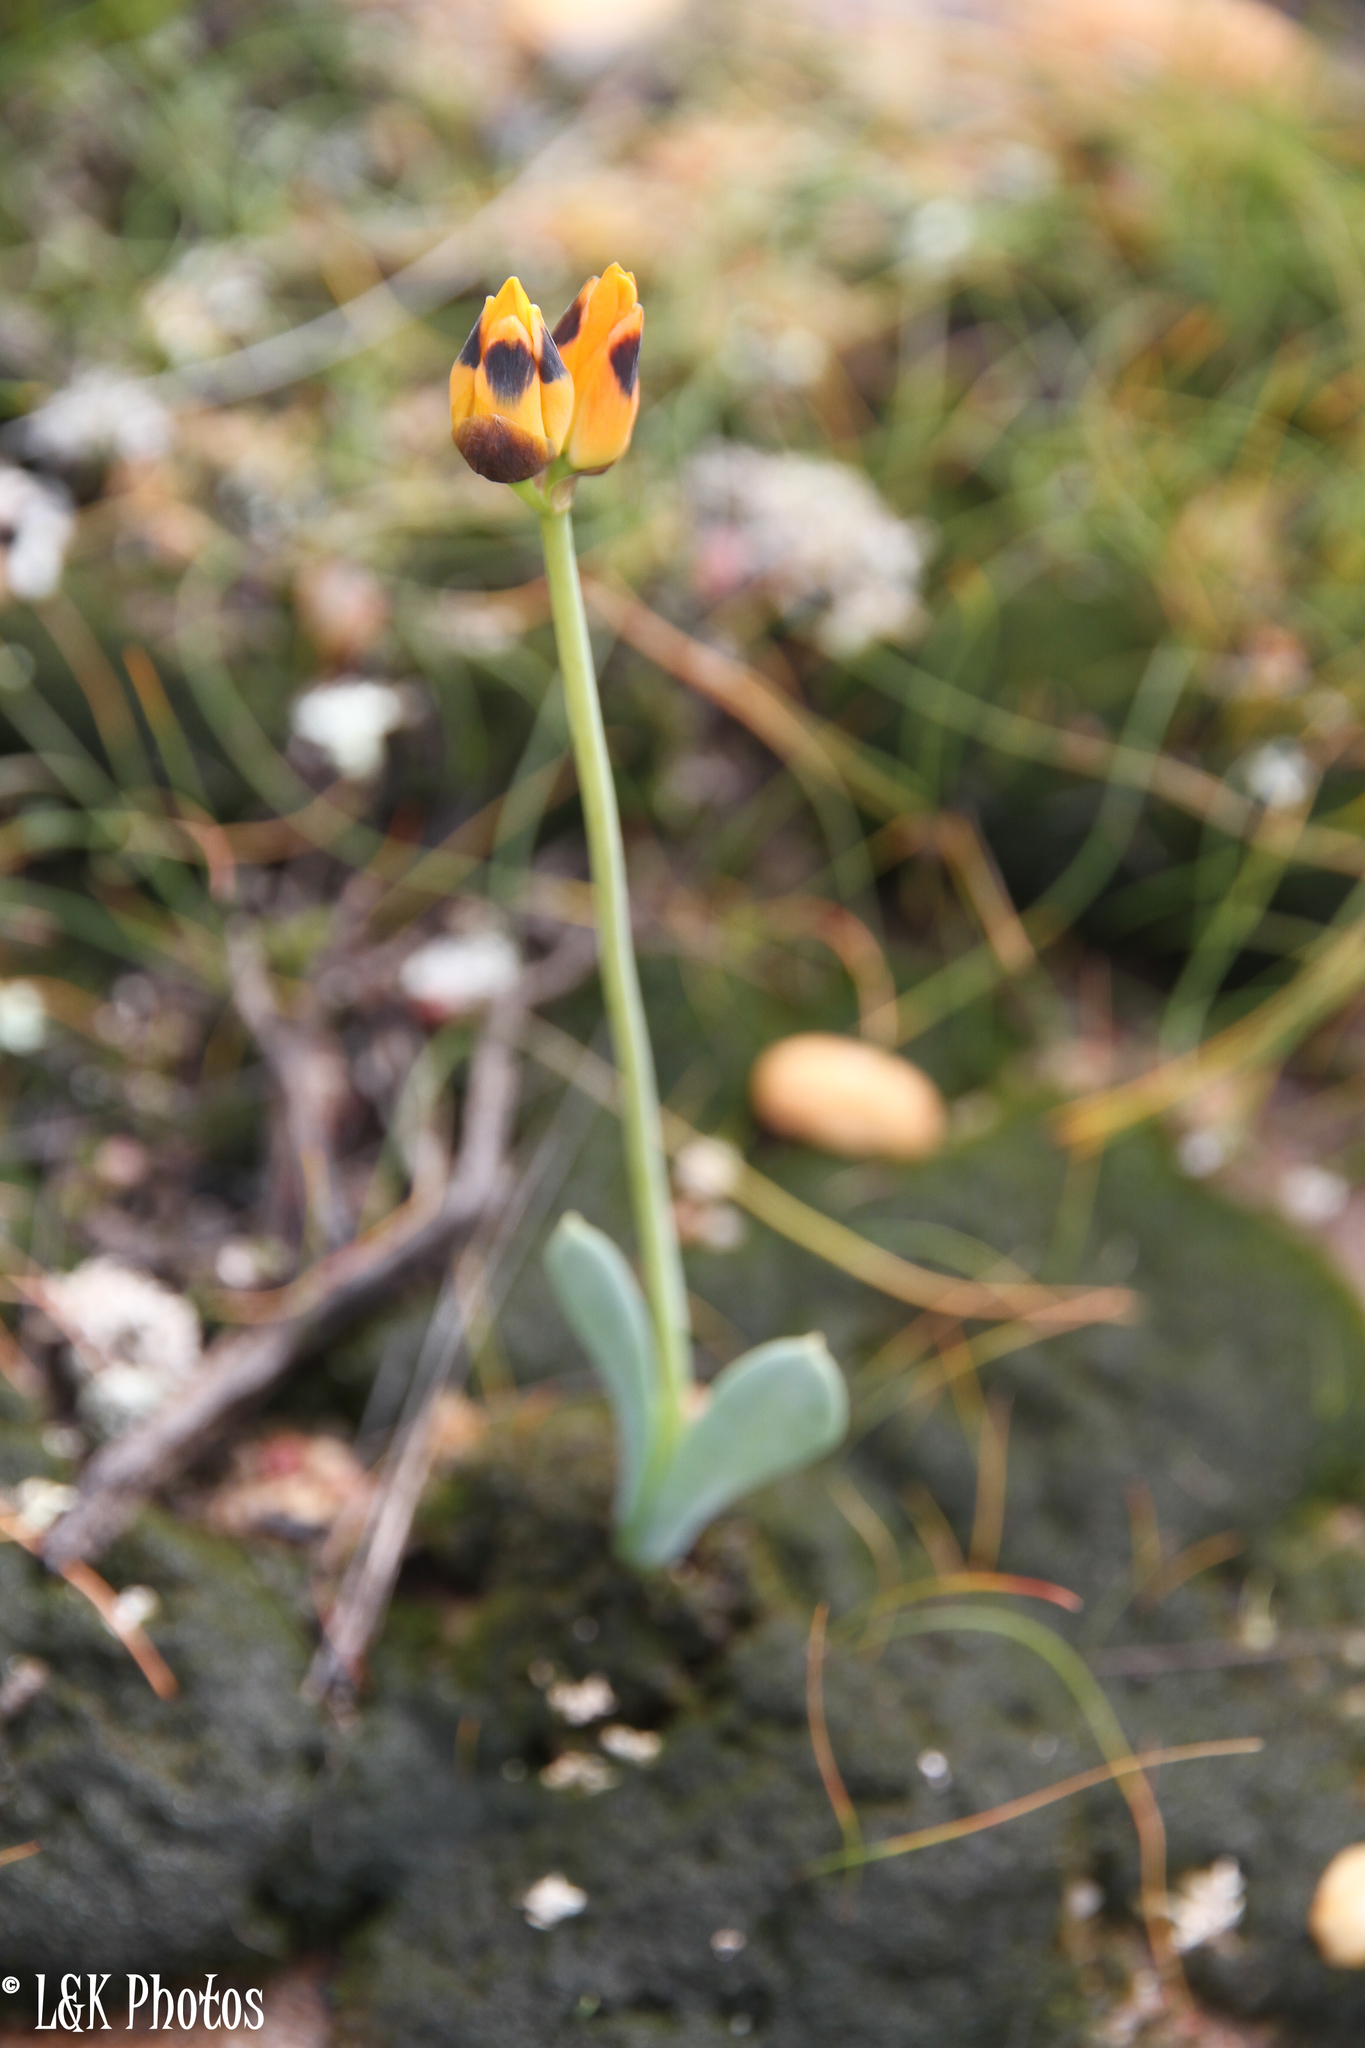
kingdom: Plantae
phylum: Tracheophyta
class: Liliopsida
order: Asparagales
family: Asparagaceae
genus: Ornithogalum
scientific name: Ornithogalum maculatum
